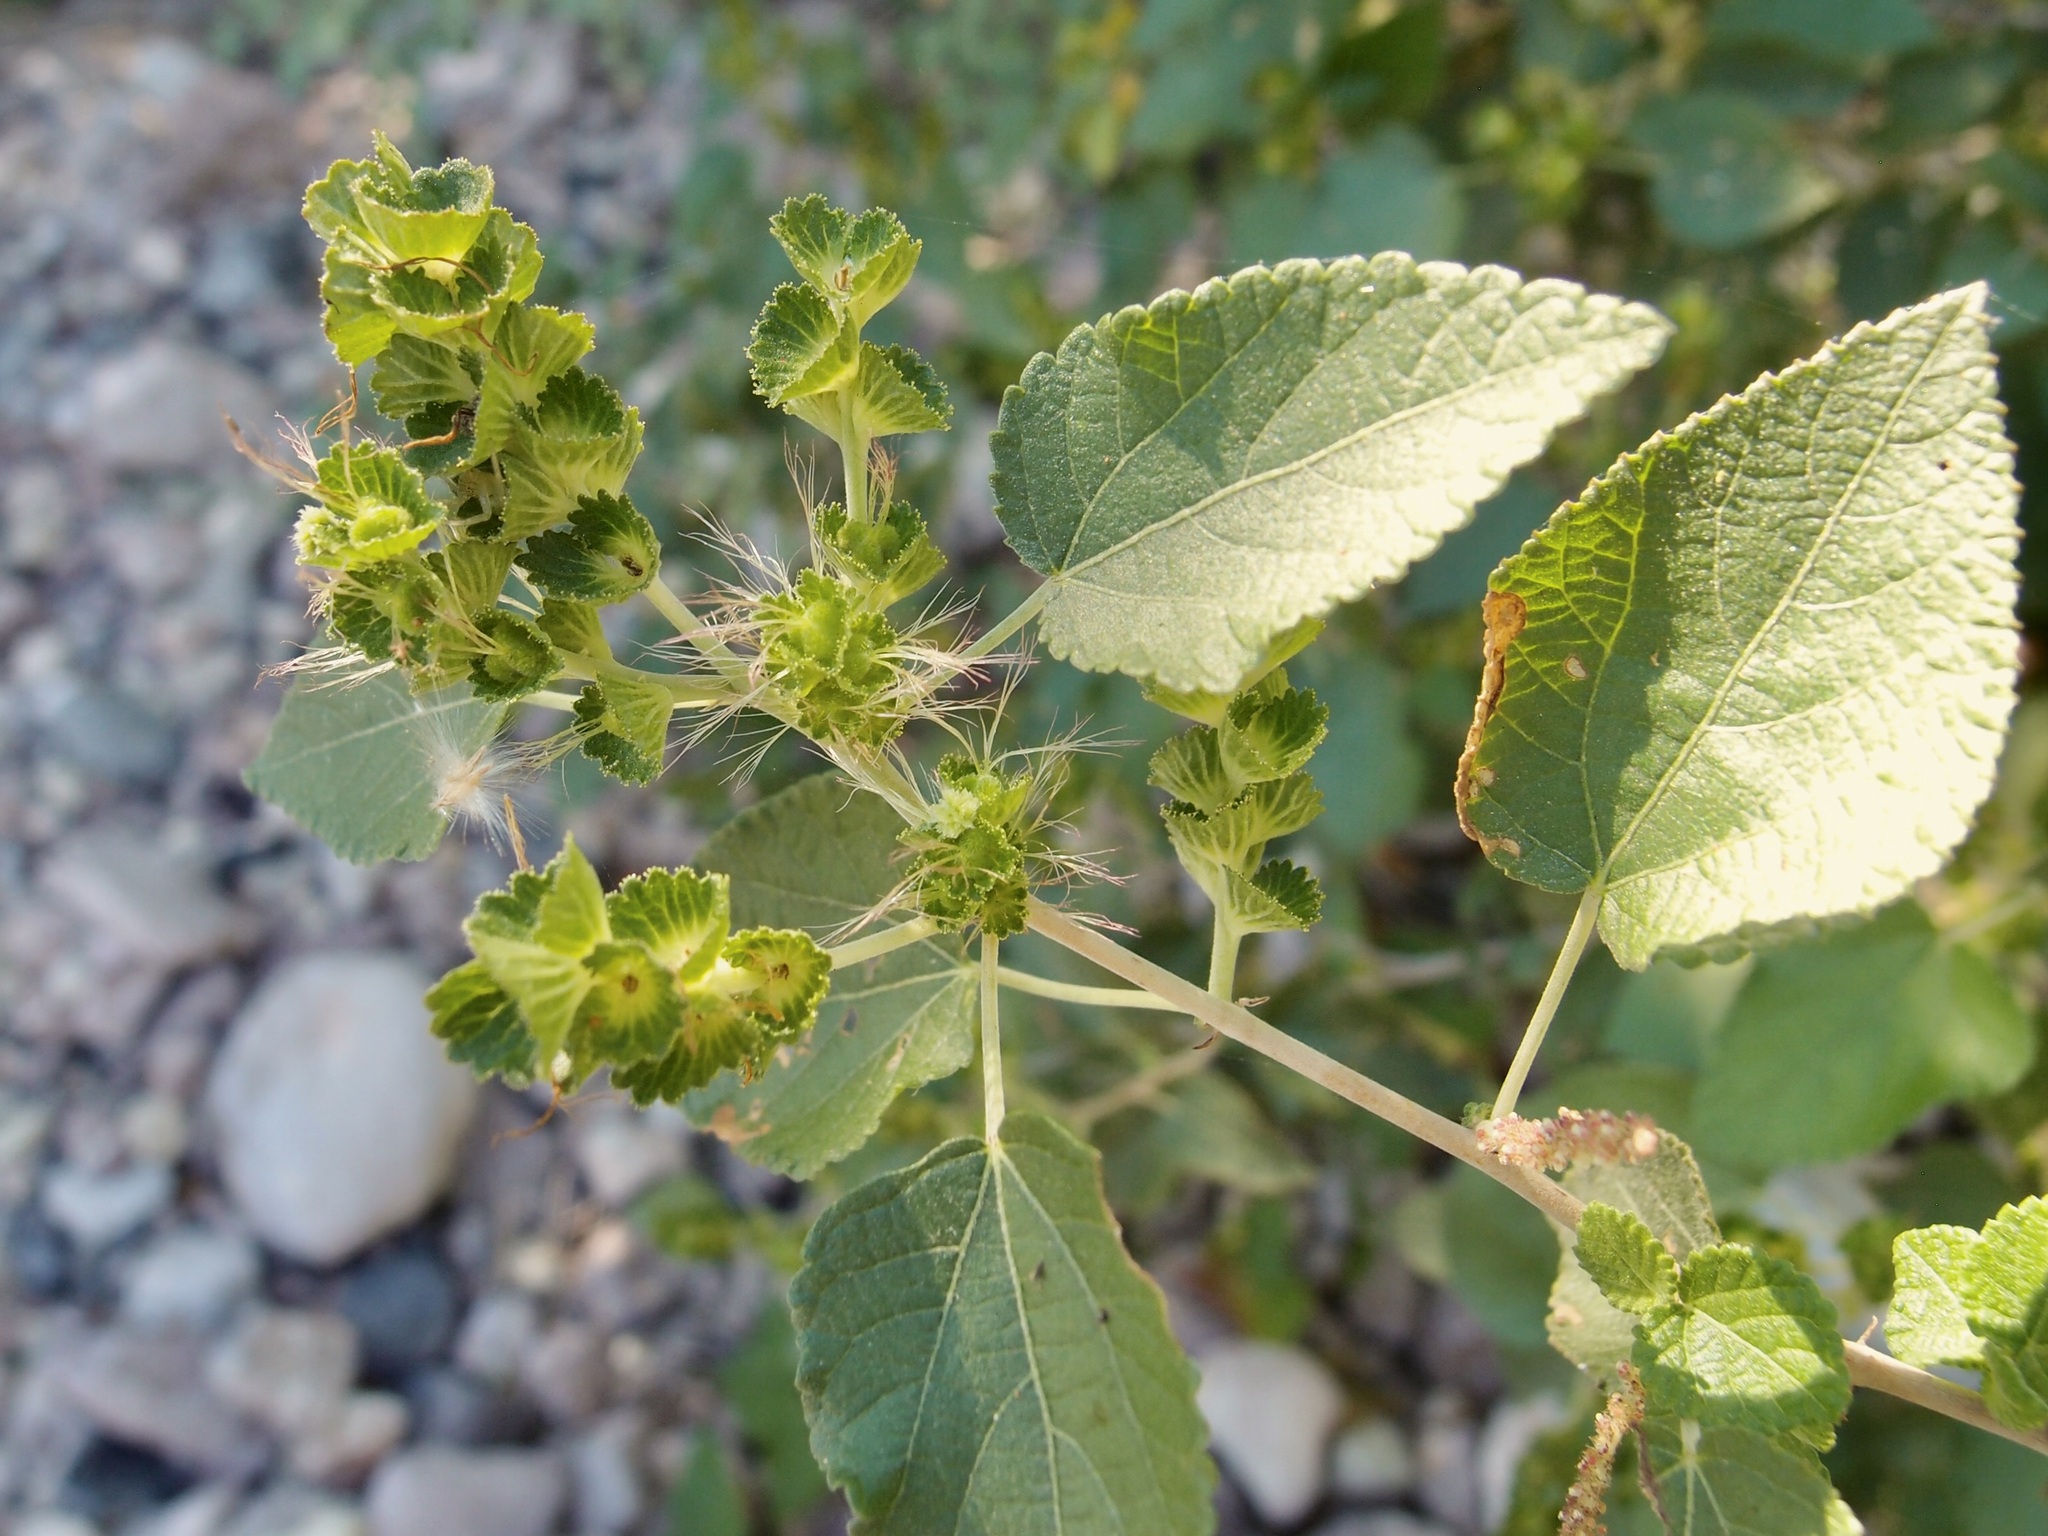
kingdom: Plantae
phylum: Tracheophyta
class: Magnoliopsida
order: Malpighiales
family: Euphorbiaceae
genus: Acalypha
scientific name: Acalypha californica
